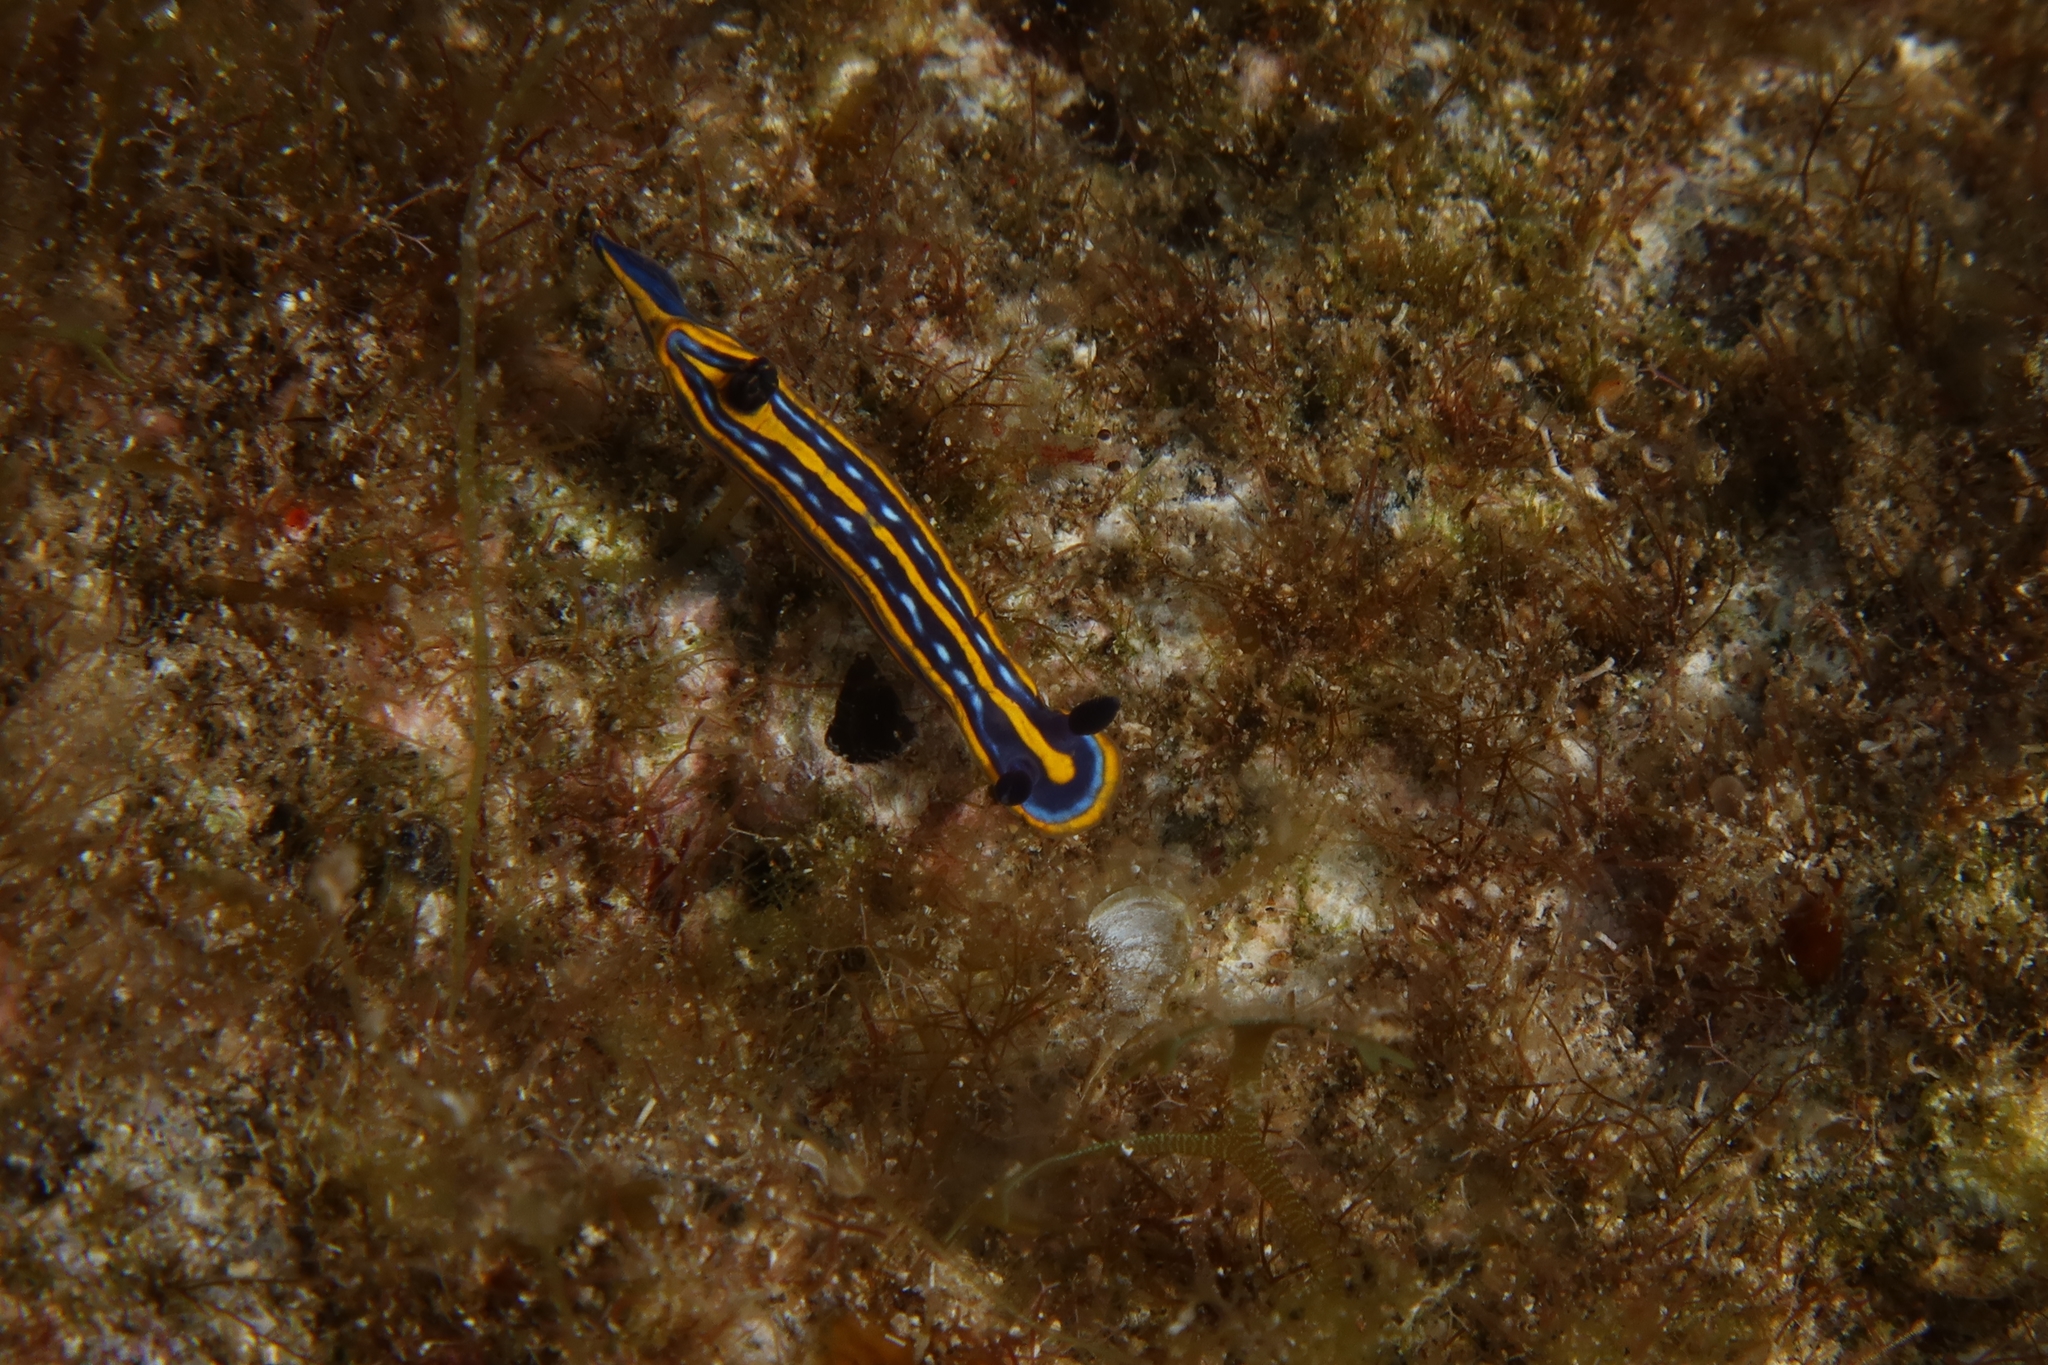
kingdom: Animalia
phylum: Mollusca
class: Gastropoda
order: Nudibranchia
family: Chromodorididae
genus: Felimare
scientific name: Felimare tricolor
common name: Tricolor doris
